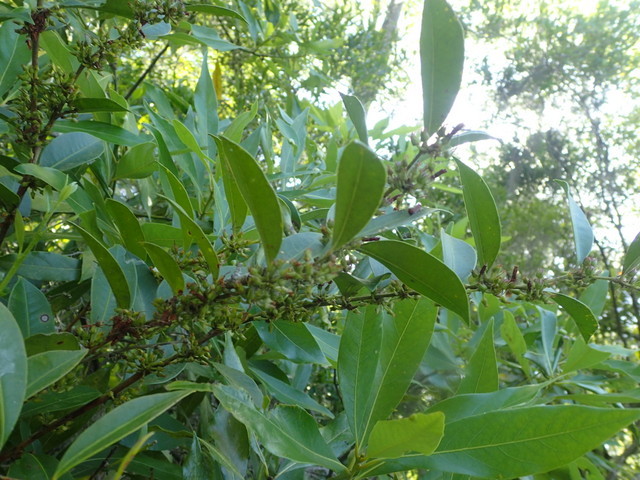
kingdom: Plantae
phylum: Tracheophyta
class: Magnoliopsida
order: Ericales
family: Ericaceae
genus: Lyonia
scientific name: Lyonia lucida
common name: Fetterbush
